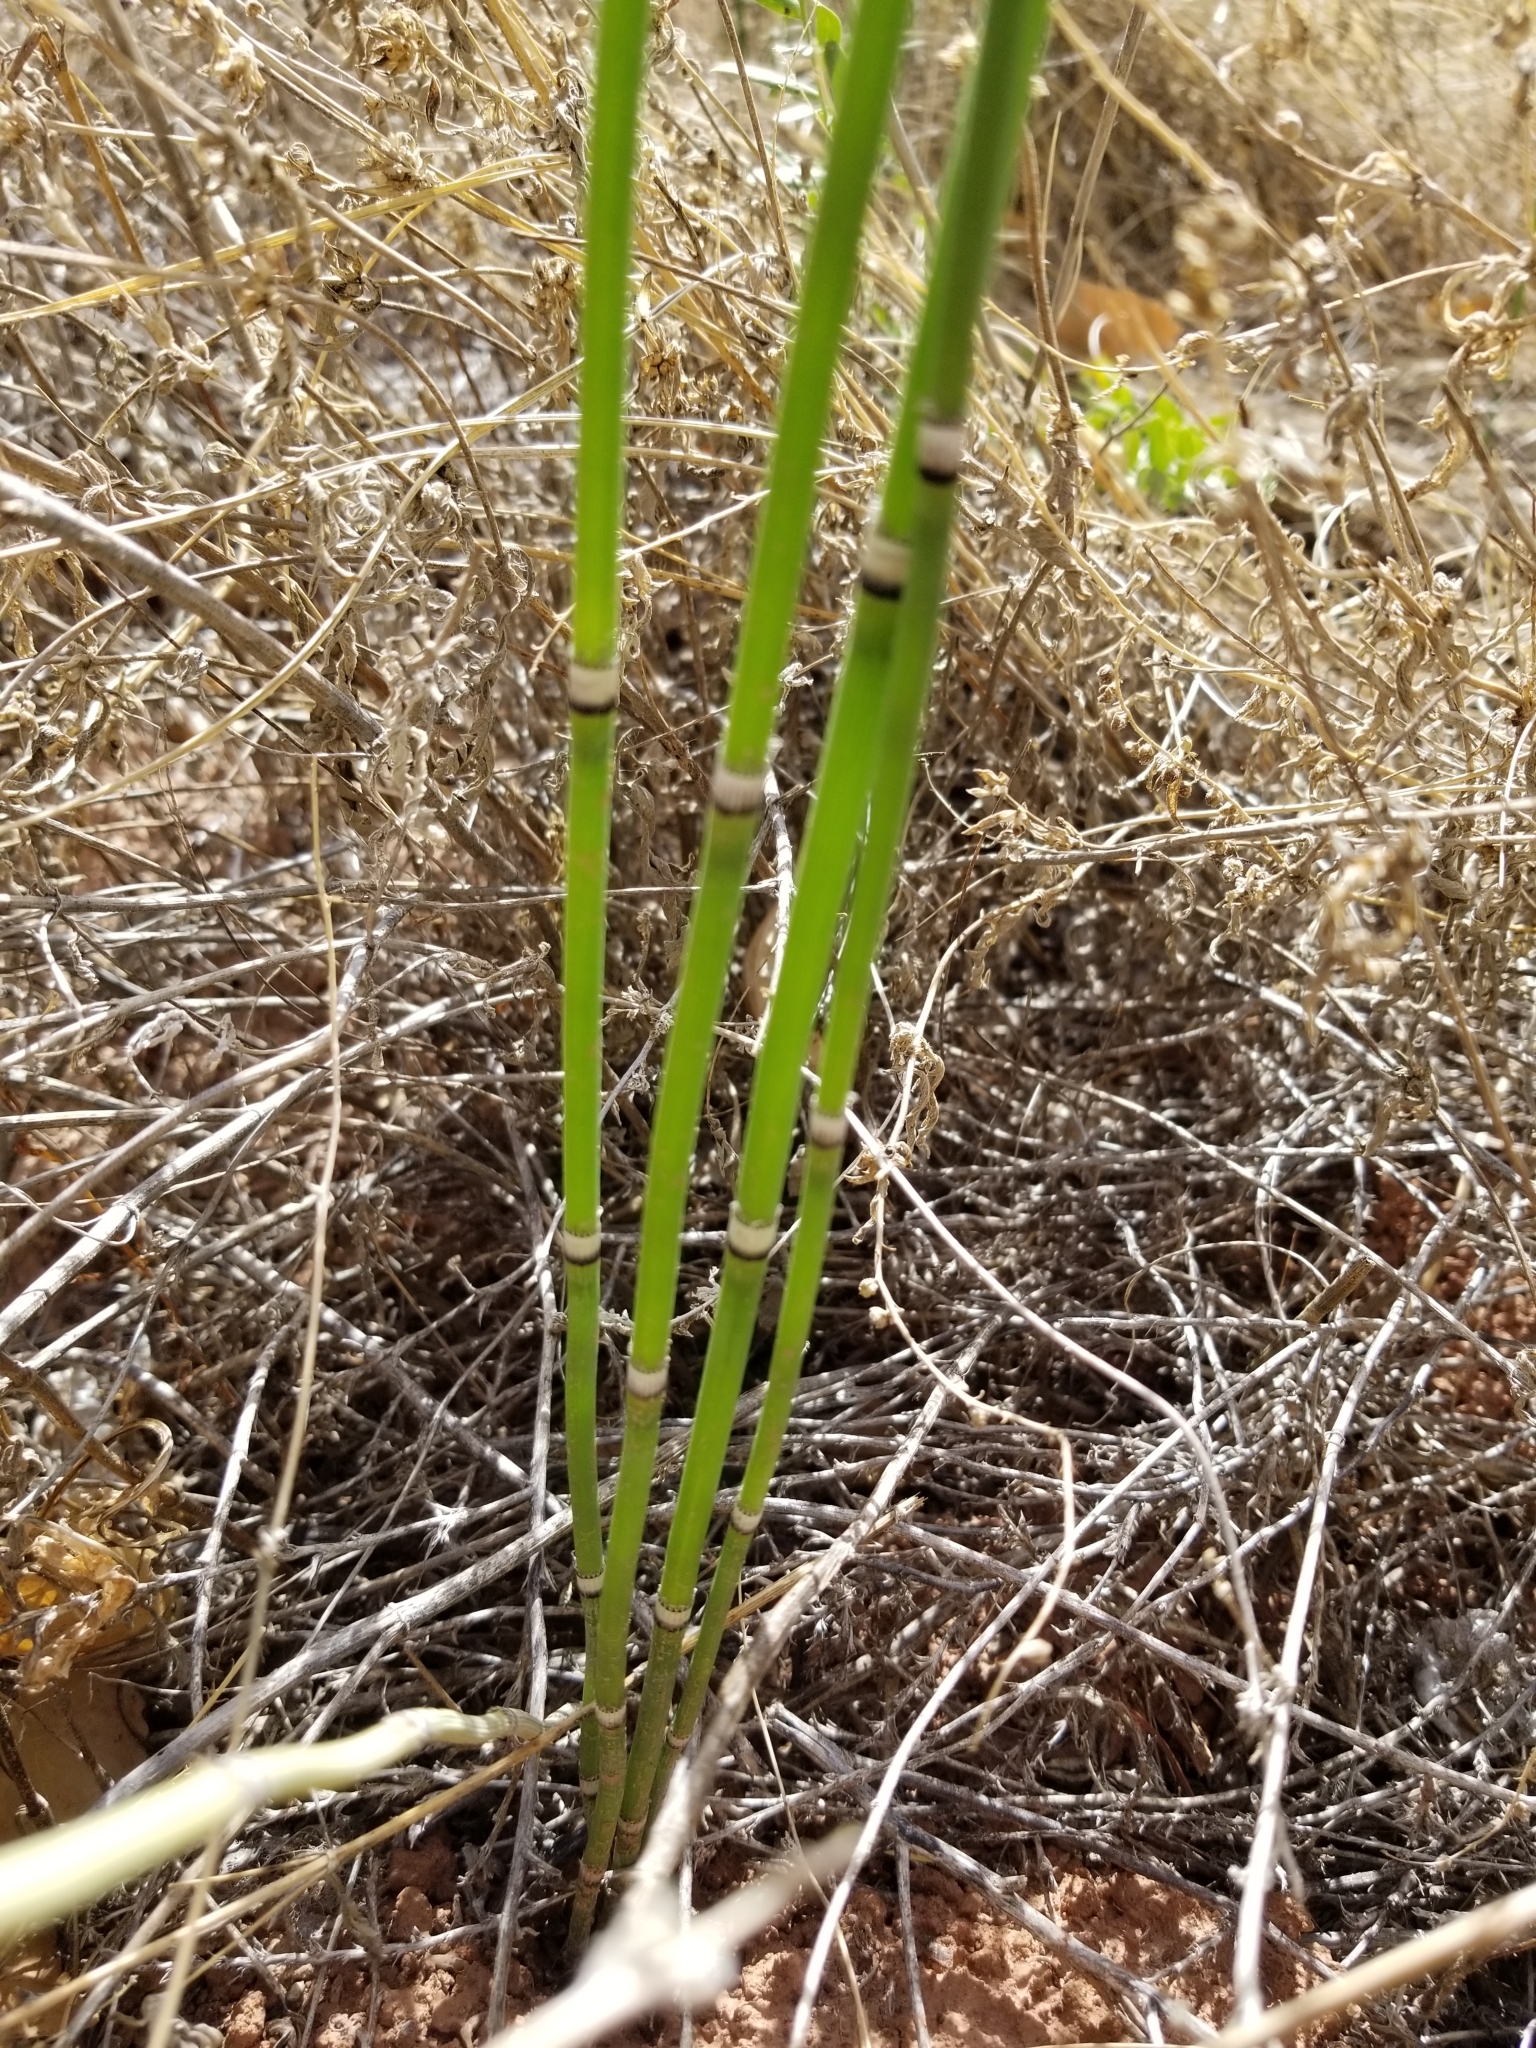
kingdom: Plantae
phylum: Tracheophyta
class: Polypodiopsida
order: Equisetales
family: Equisetaceae
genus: Equisetum
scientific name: Equisetum hyemale
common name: Rough horsetail
